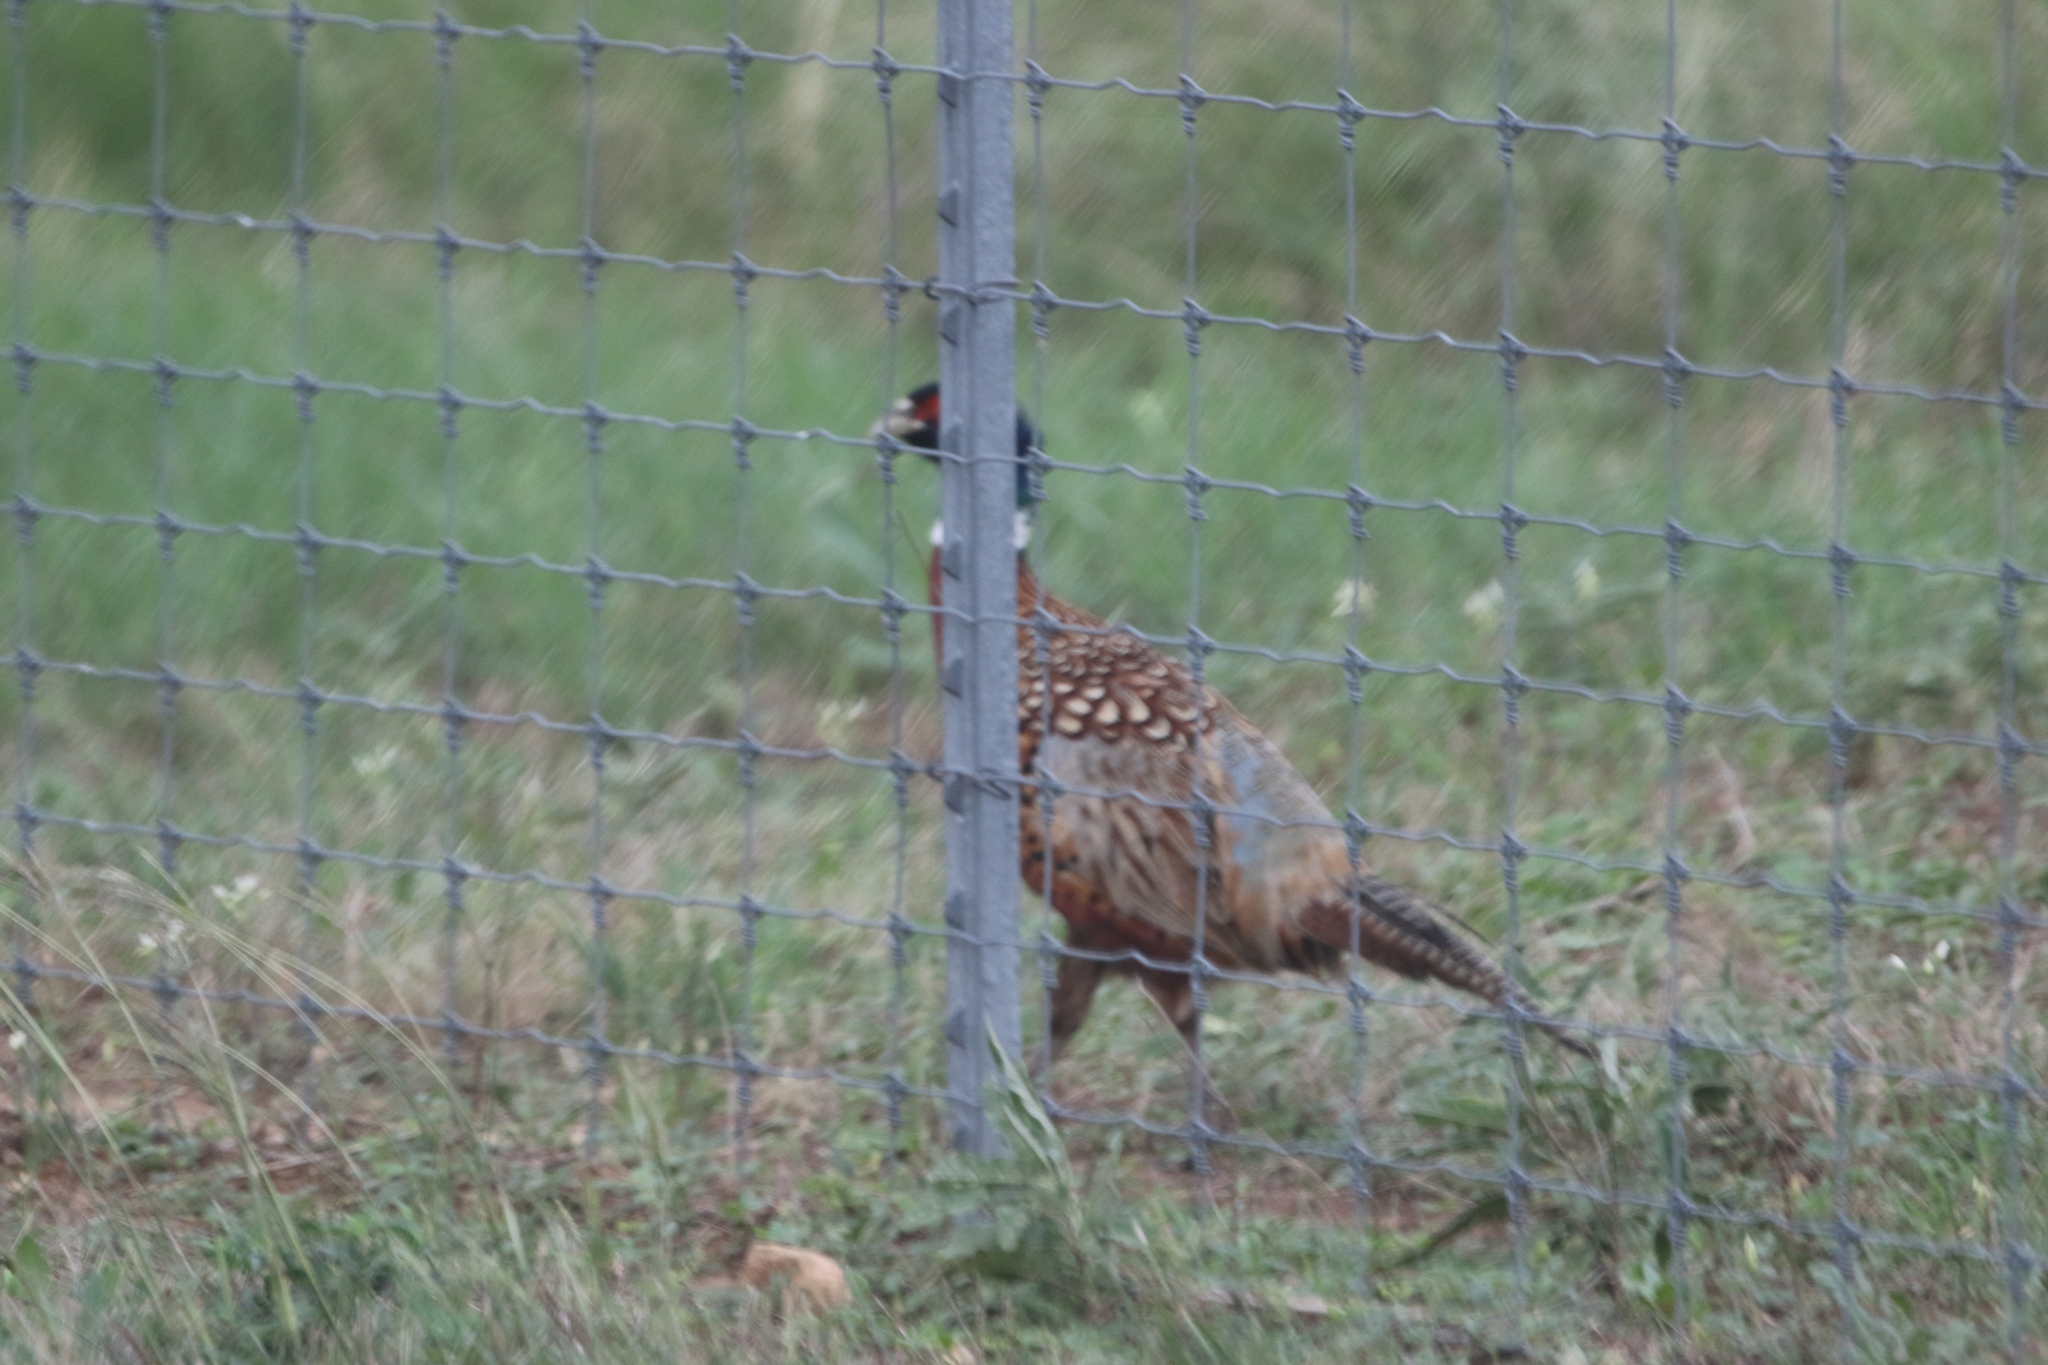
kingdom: Animalia
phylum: Chordata
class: Aves
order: Galliformes
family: Phasianidae
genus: Phasianus
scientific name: Phasianus colchicus
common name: Common pheasant
